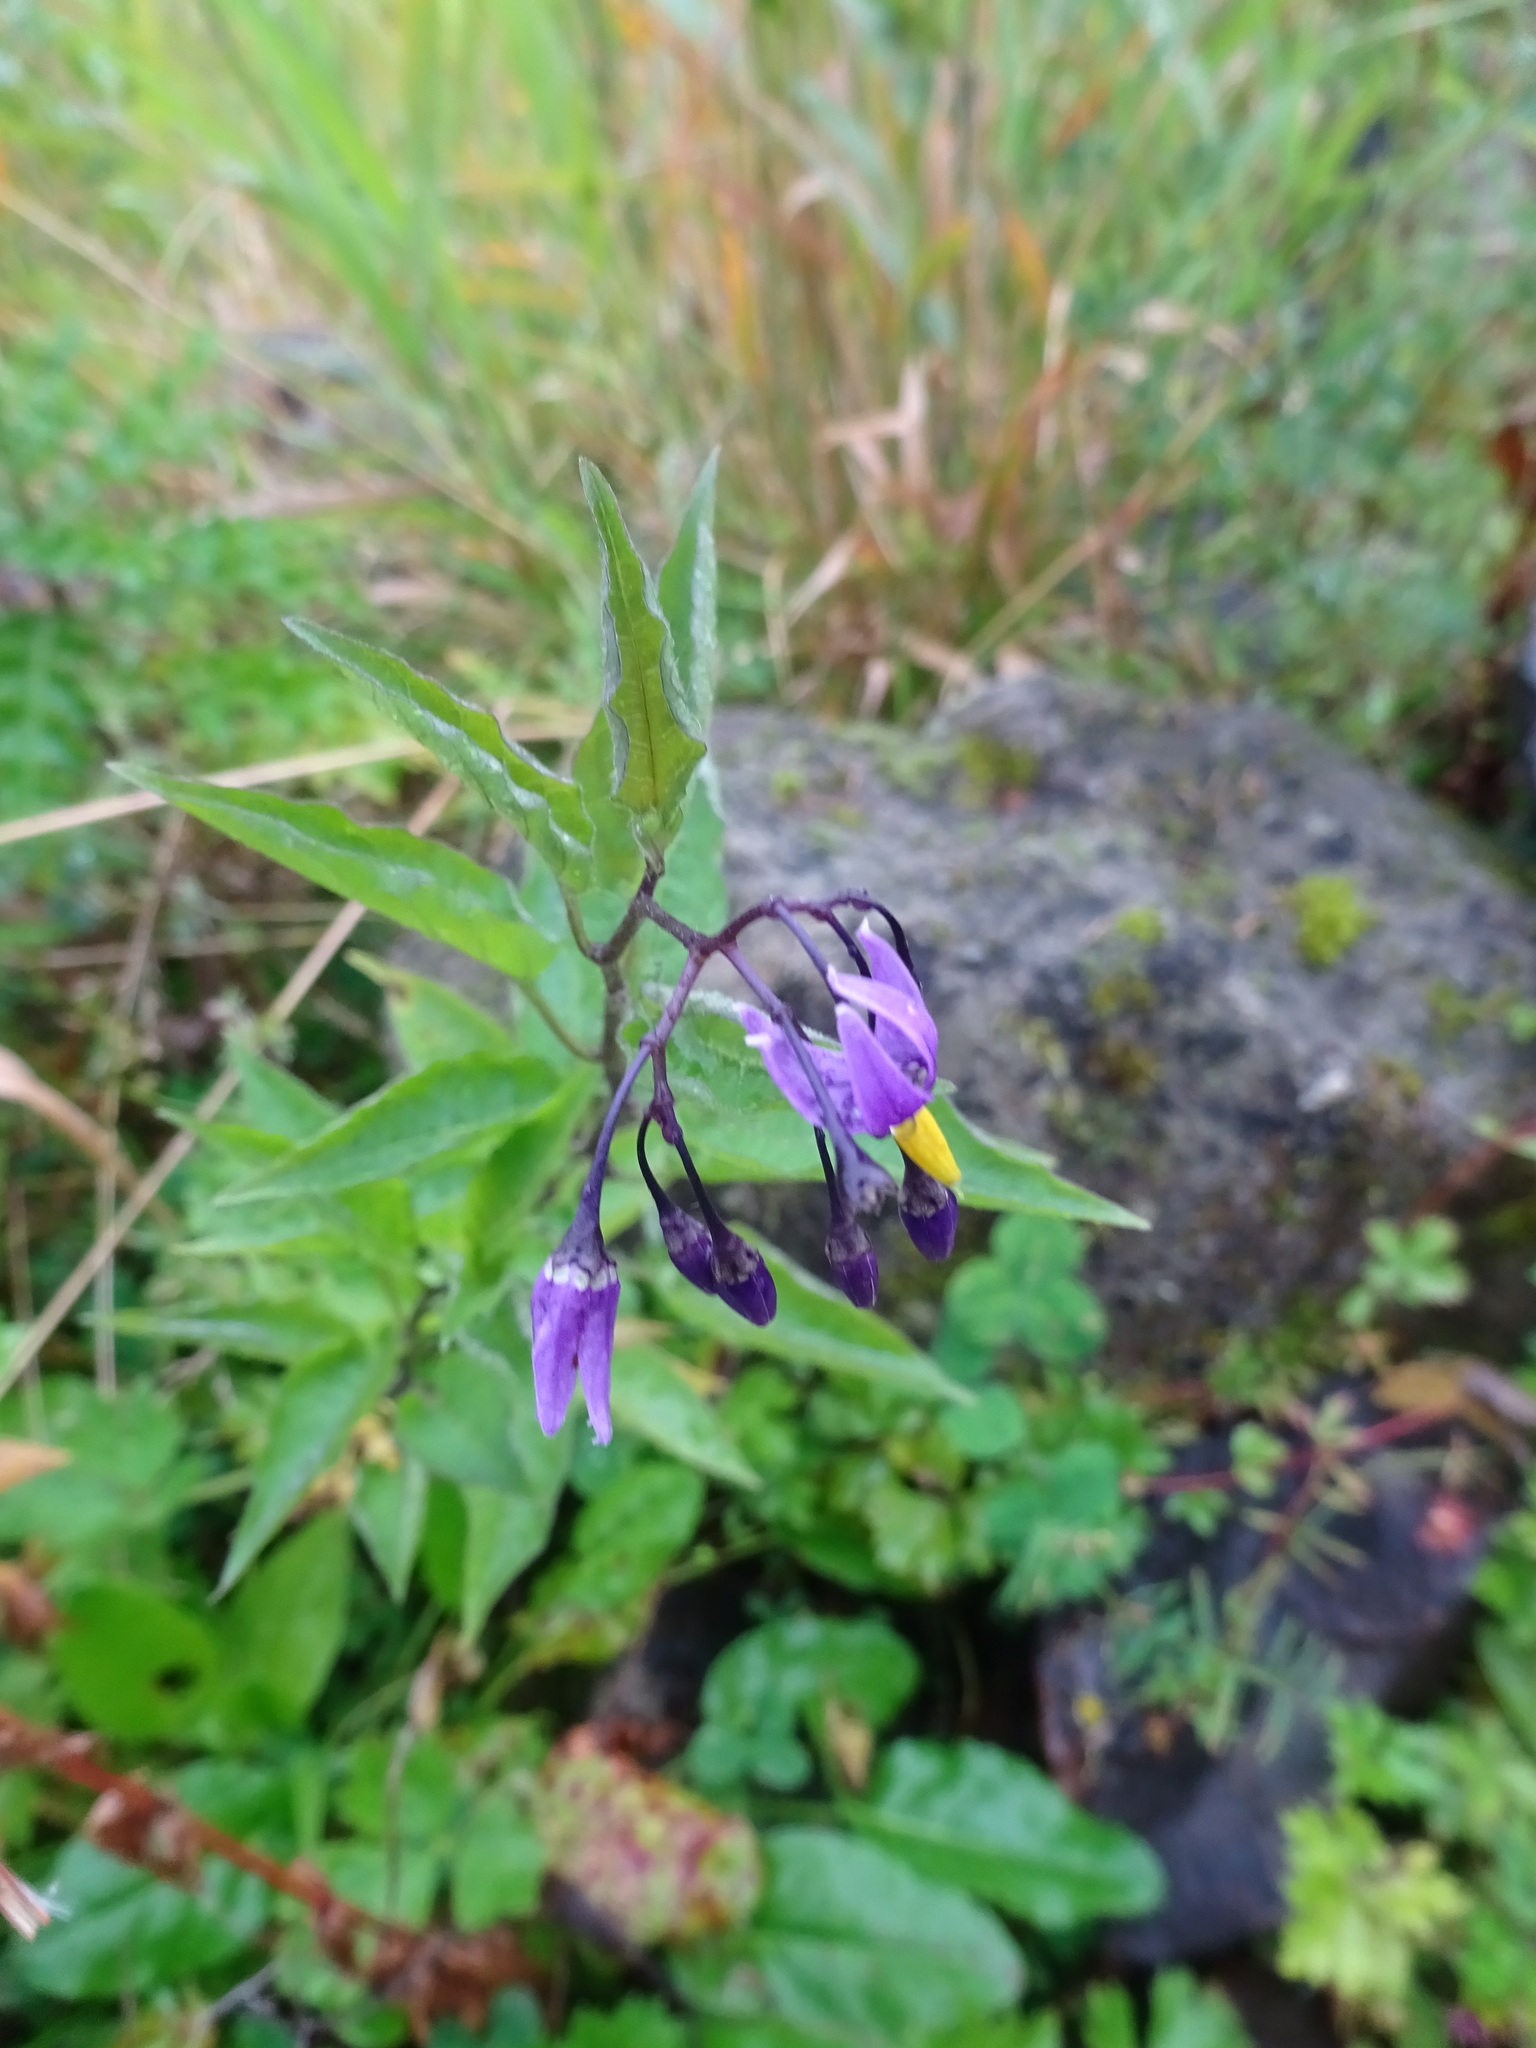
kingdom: Plantae
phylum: Tracheophyta
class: Magnoliopsida
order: Solanales
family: Solanaceae
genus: Solanum
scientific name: Solanum dulcamara
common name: Climbing nightshade
